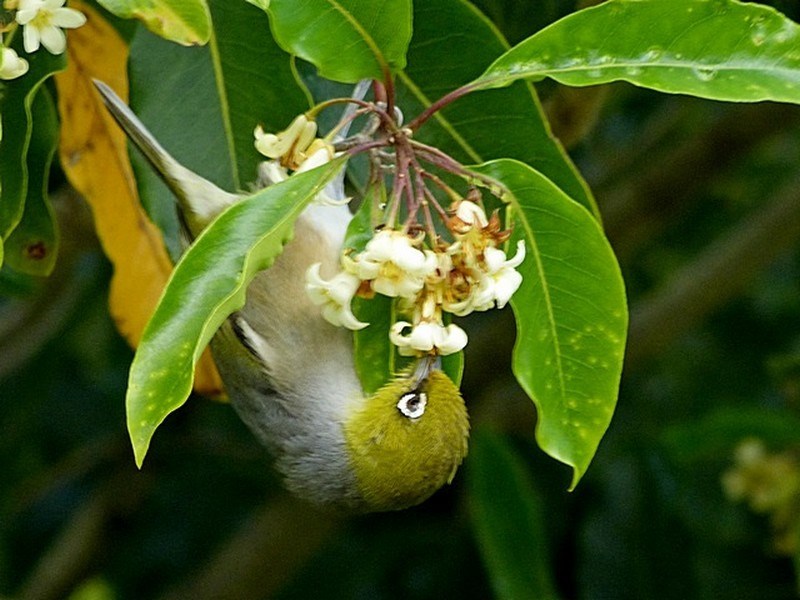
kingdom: Animalia
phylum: Chordata
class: Aves
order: Passeriformes
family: Zosteropidae
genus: Zosterops
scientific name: Zosterops lateralis
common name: Silvereye
